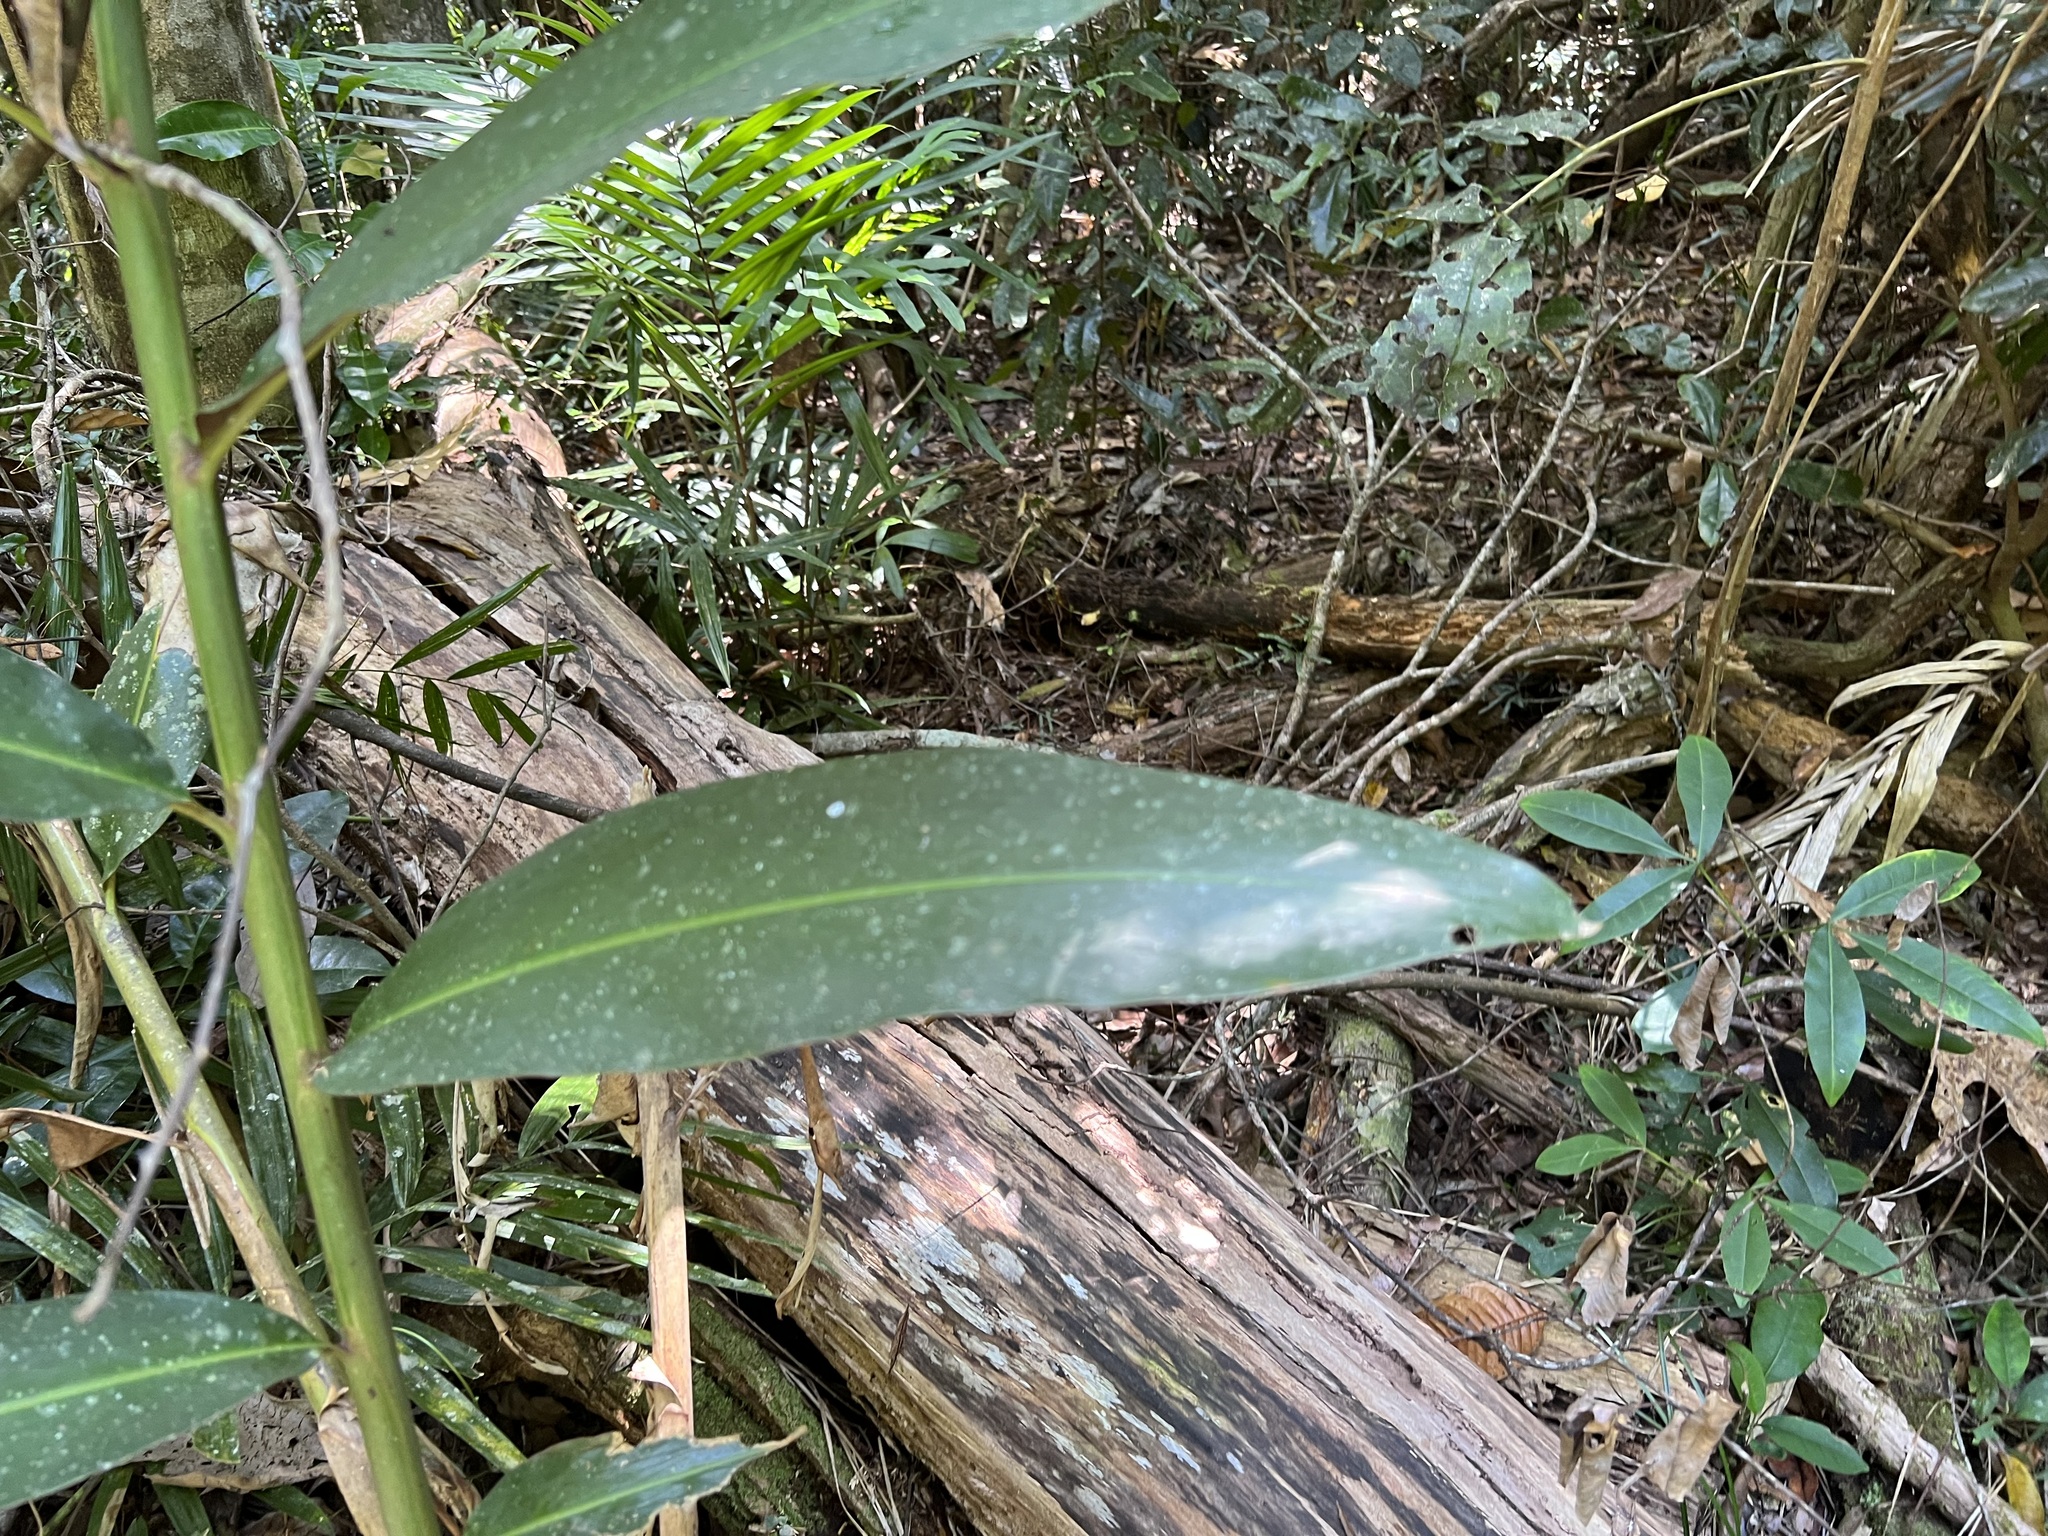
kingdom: Plantae
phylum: Tracheophyta
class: Liliopsida
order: Zingiberales
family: Zingiberaceae
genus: Alpinia
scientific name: Alpinia caerulea
